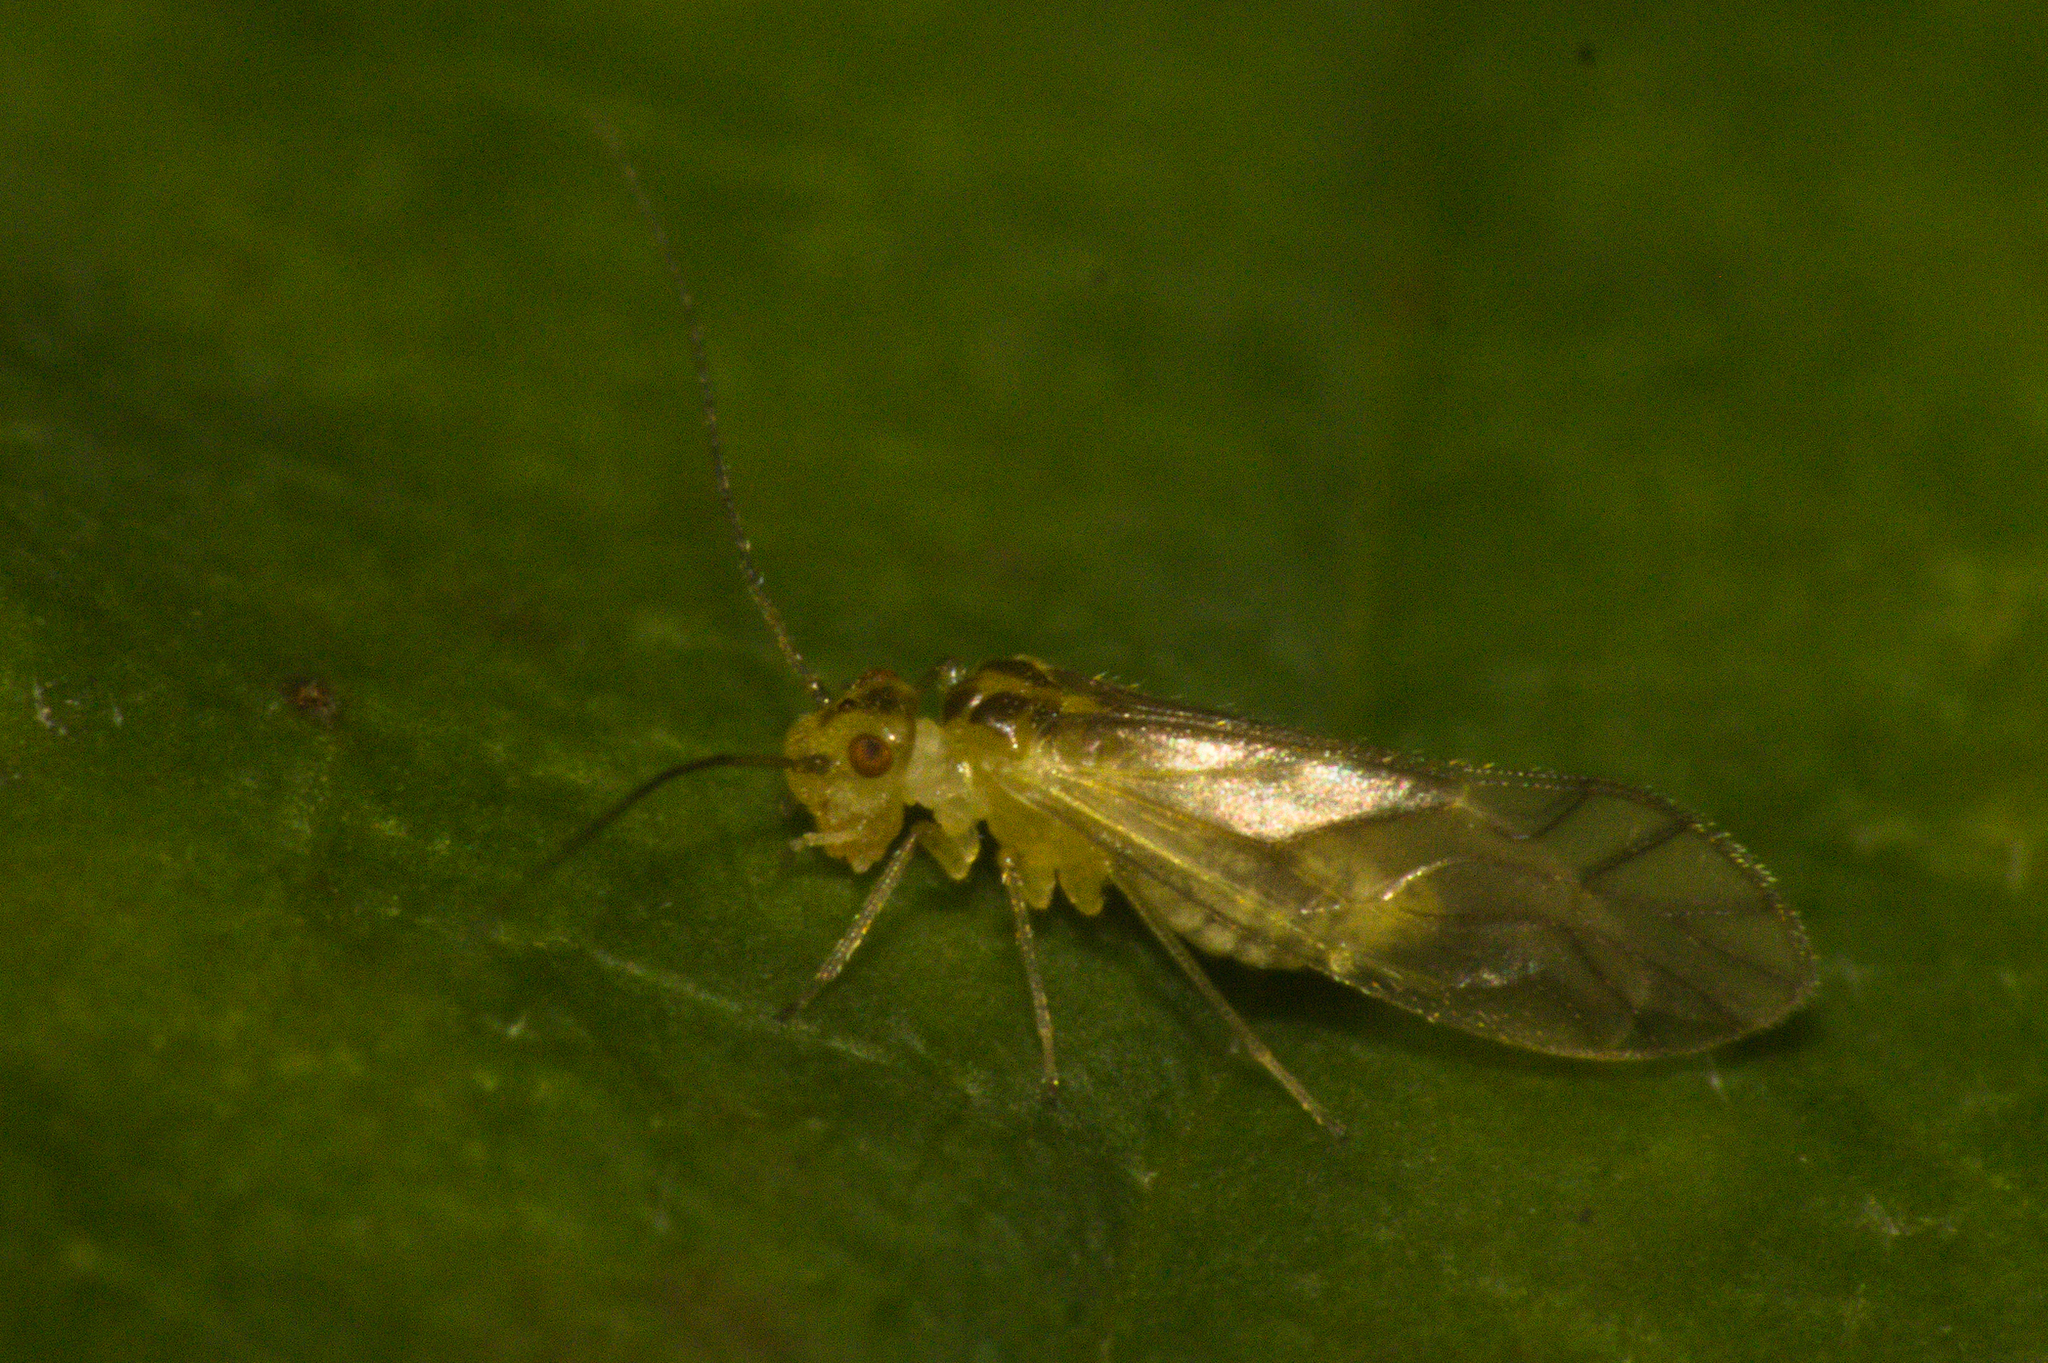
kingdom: Animalia
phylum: Arthropoda
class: Insecta
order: Psocodea
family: Caeciliusidae
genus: Valenzuela
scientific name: Valenzuela flavidus
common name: Yellow barklouse
